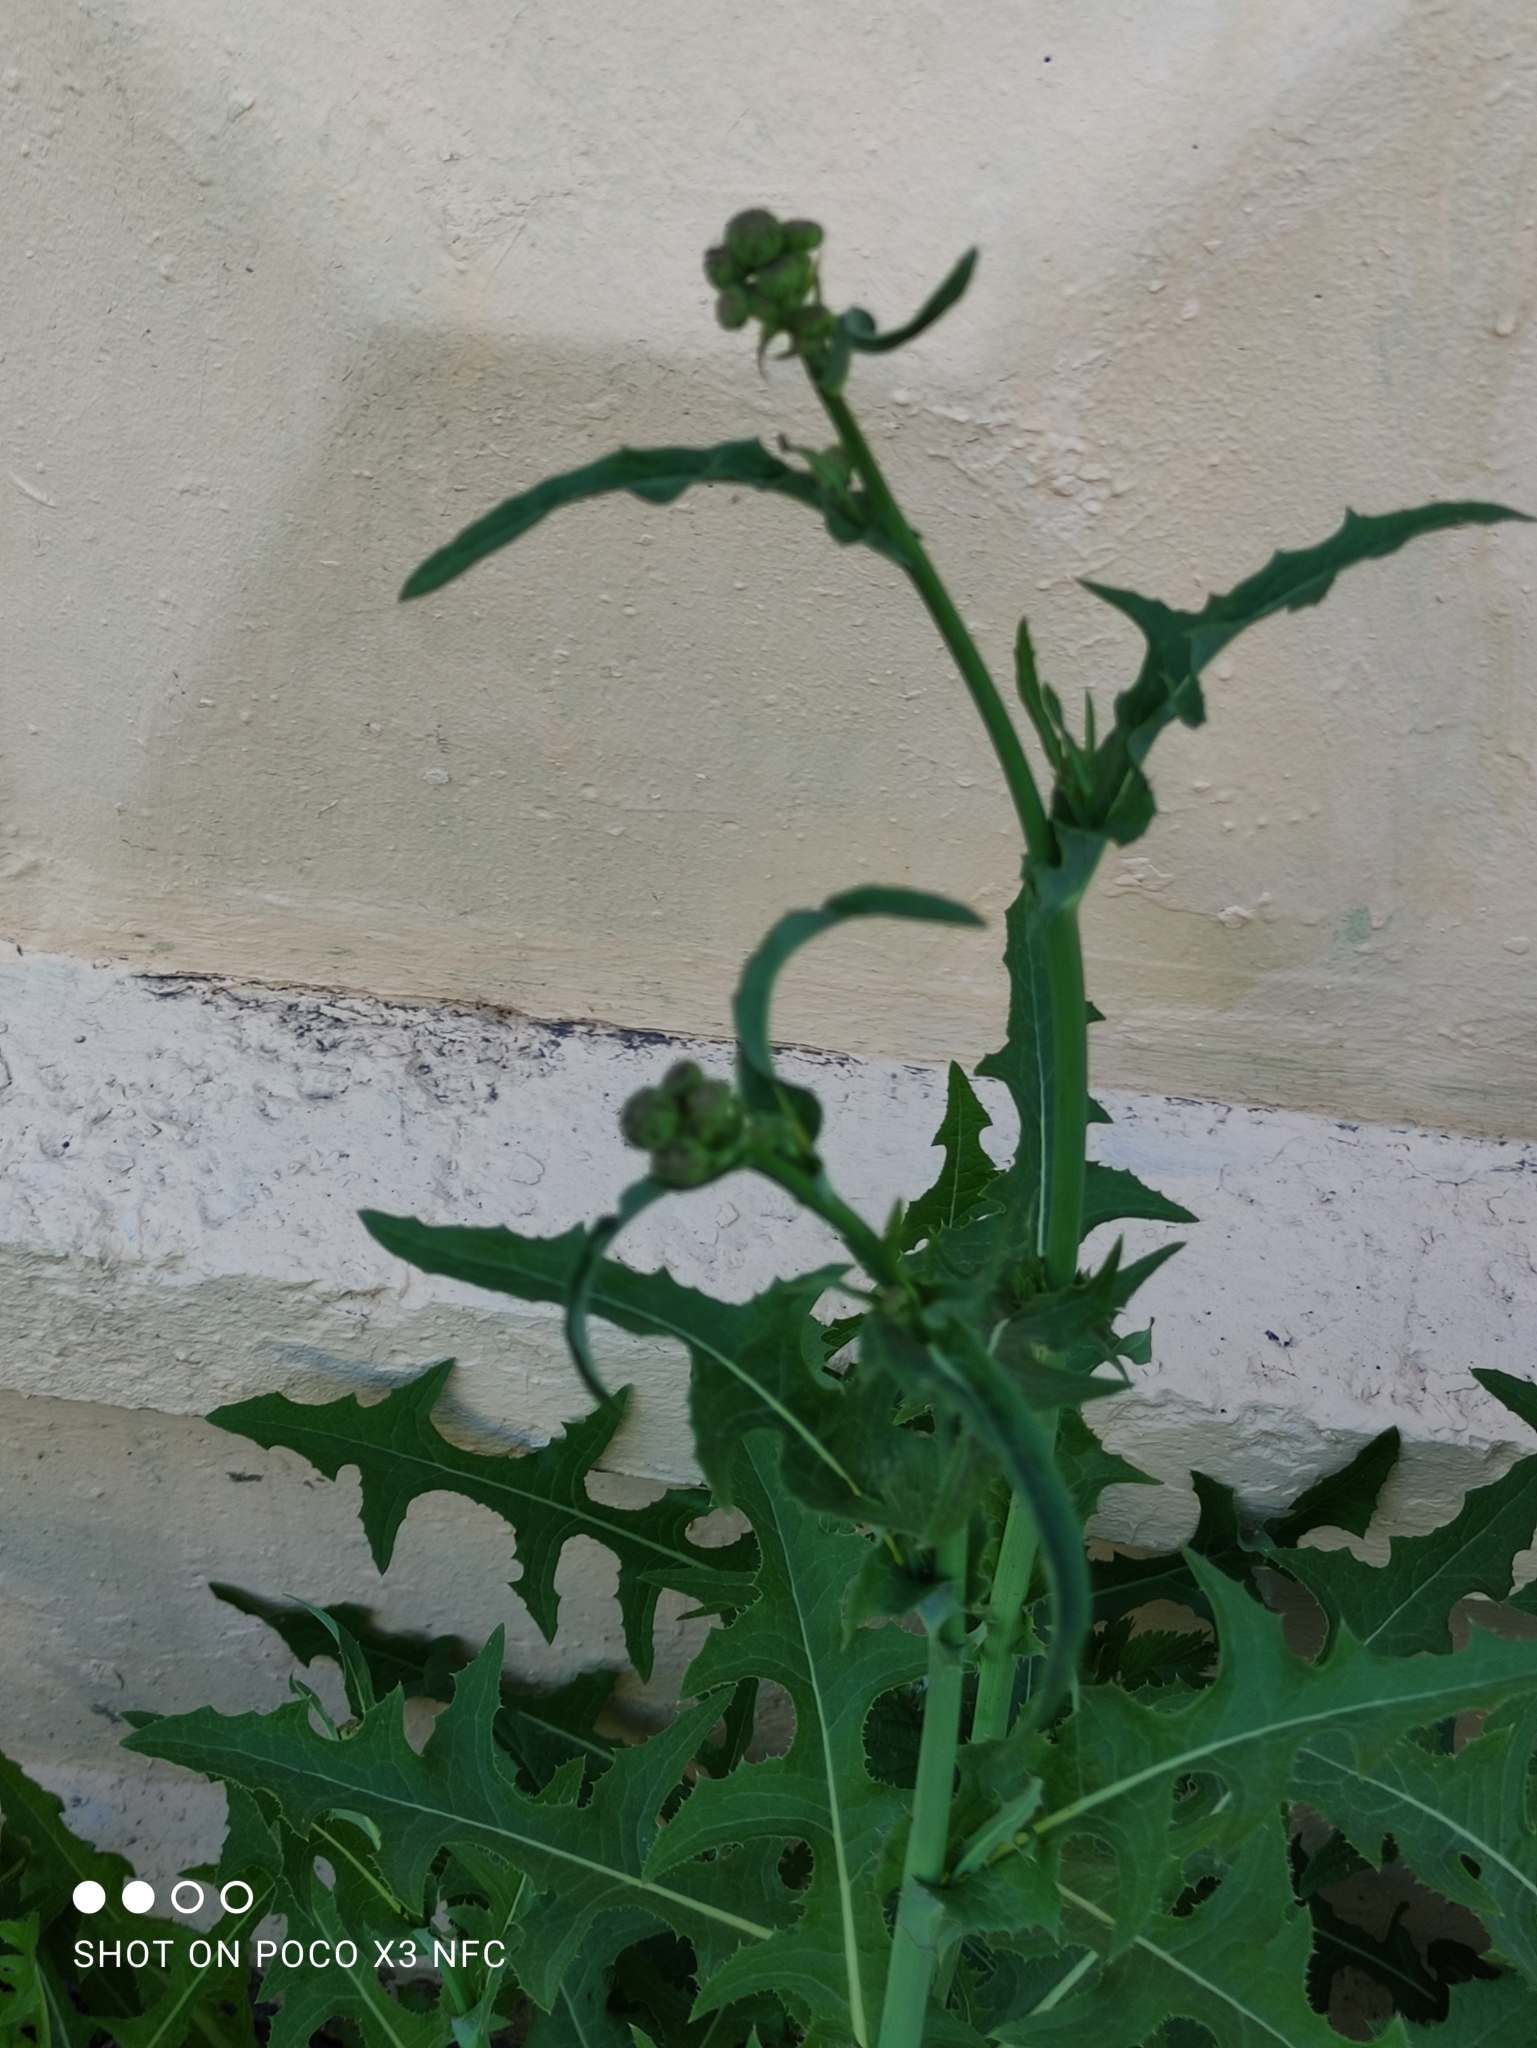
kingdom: Plantae
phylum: Tracheophyta
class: Magnoliopsida
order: Asterales
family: Asteraceae
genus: Sonchus
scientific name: Sonchus arvensis
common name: Perennial sow-thistle
